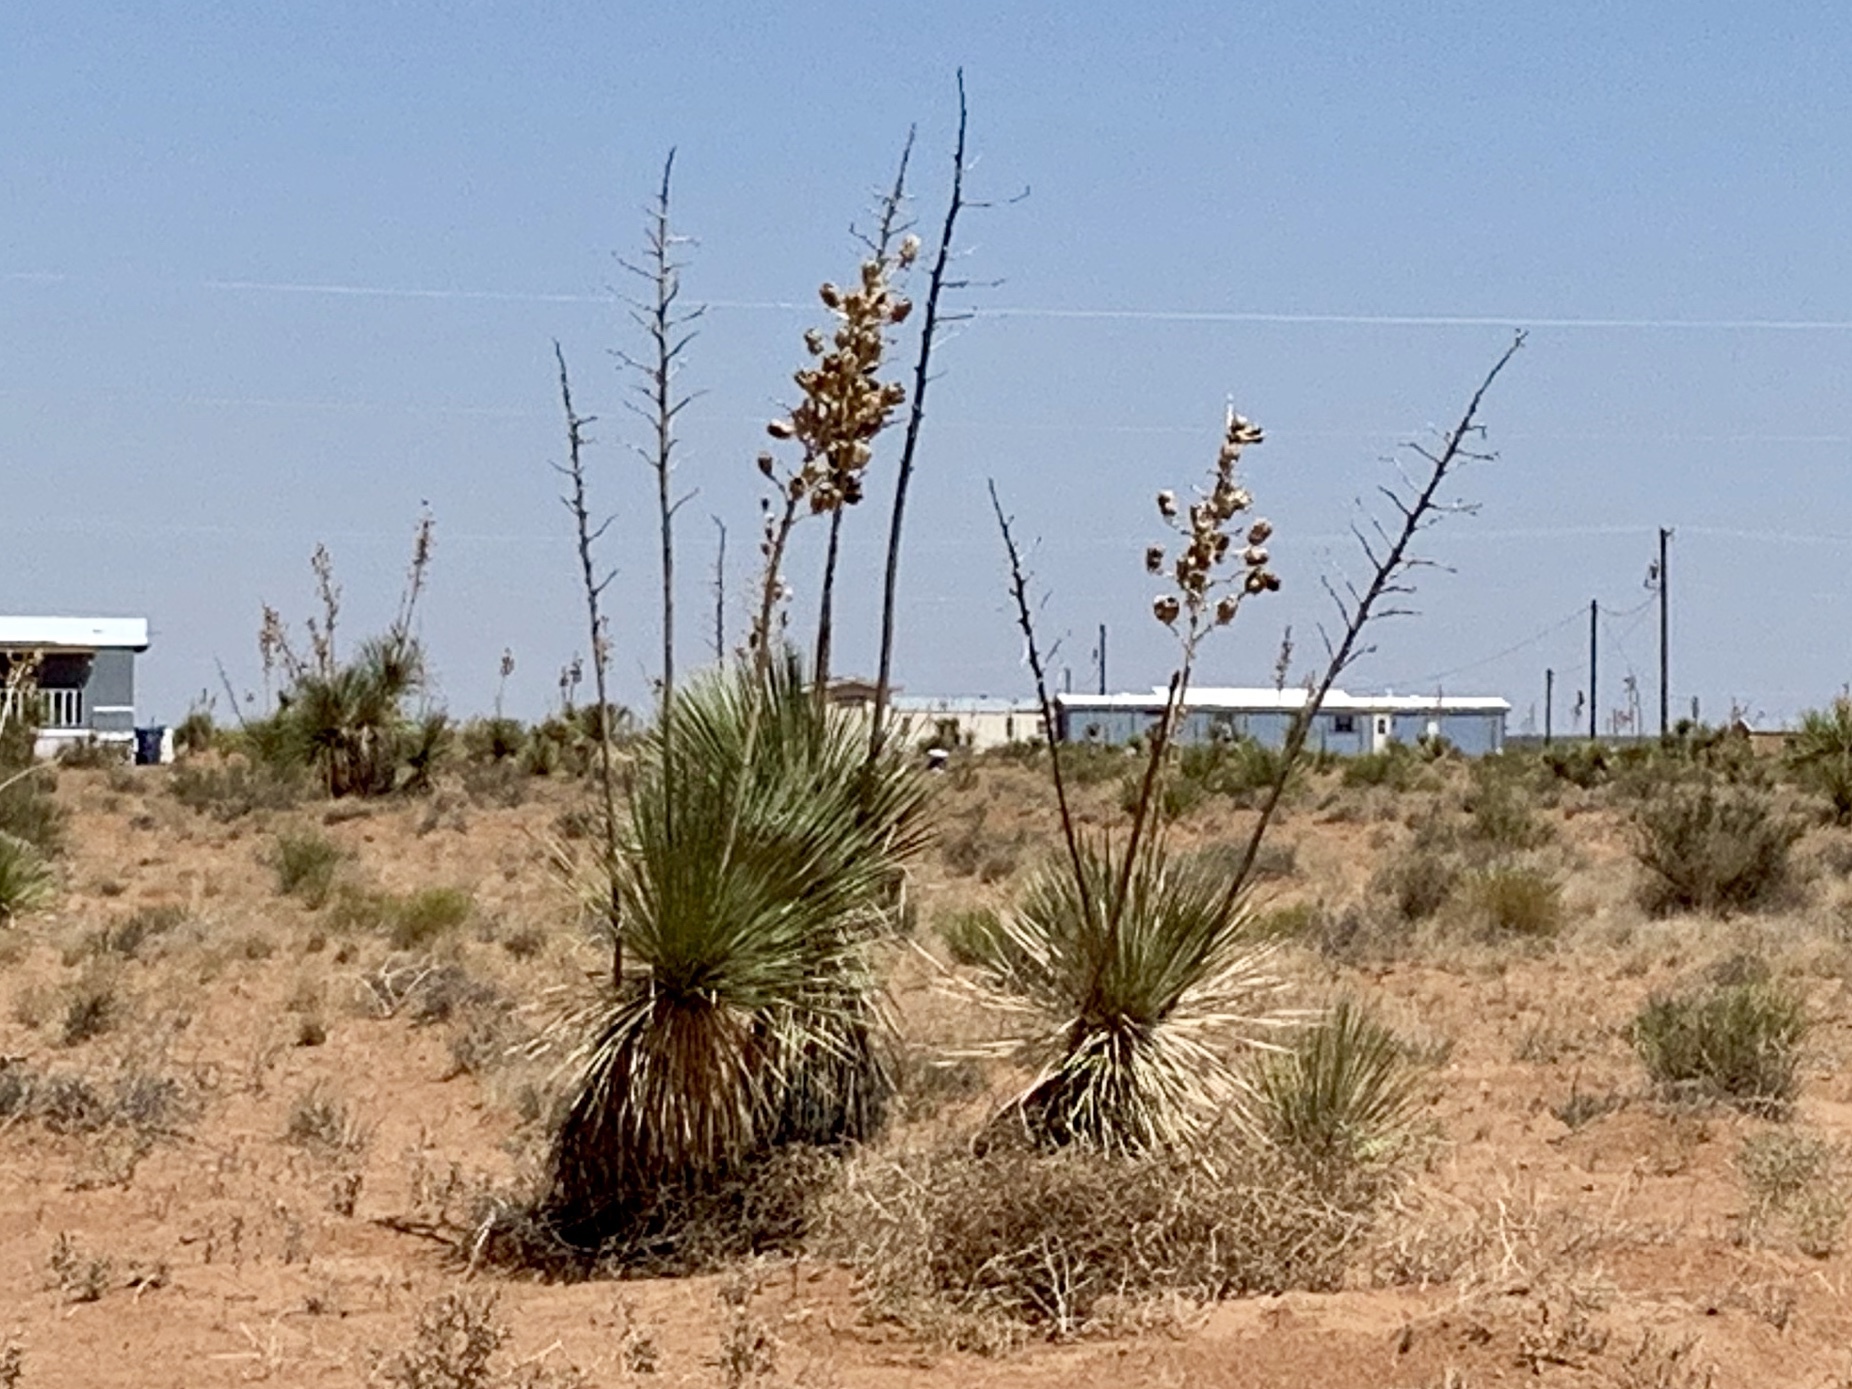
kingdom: Plantae
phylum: Tracheophyta
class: Liliopsida
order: Asparagales
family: Asparagaceae
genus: Yucca
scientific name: Yucca elata
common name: Palmella
